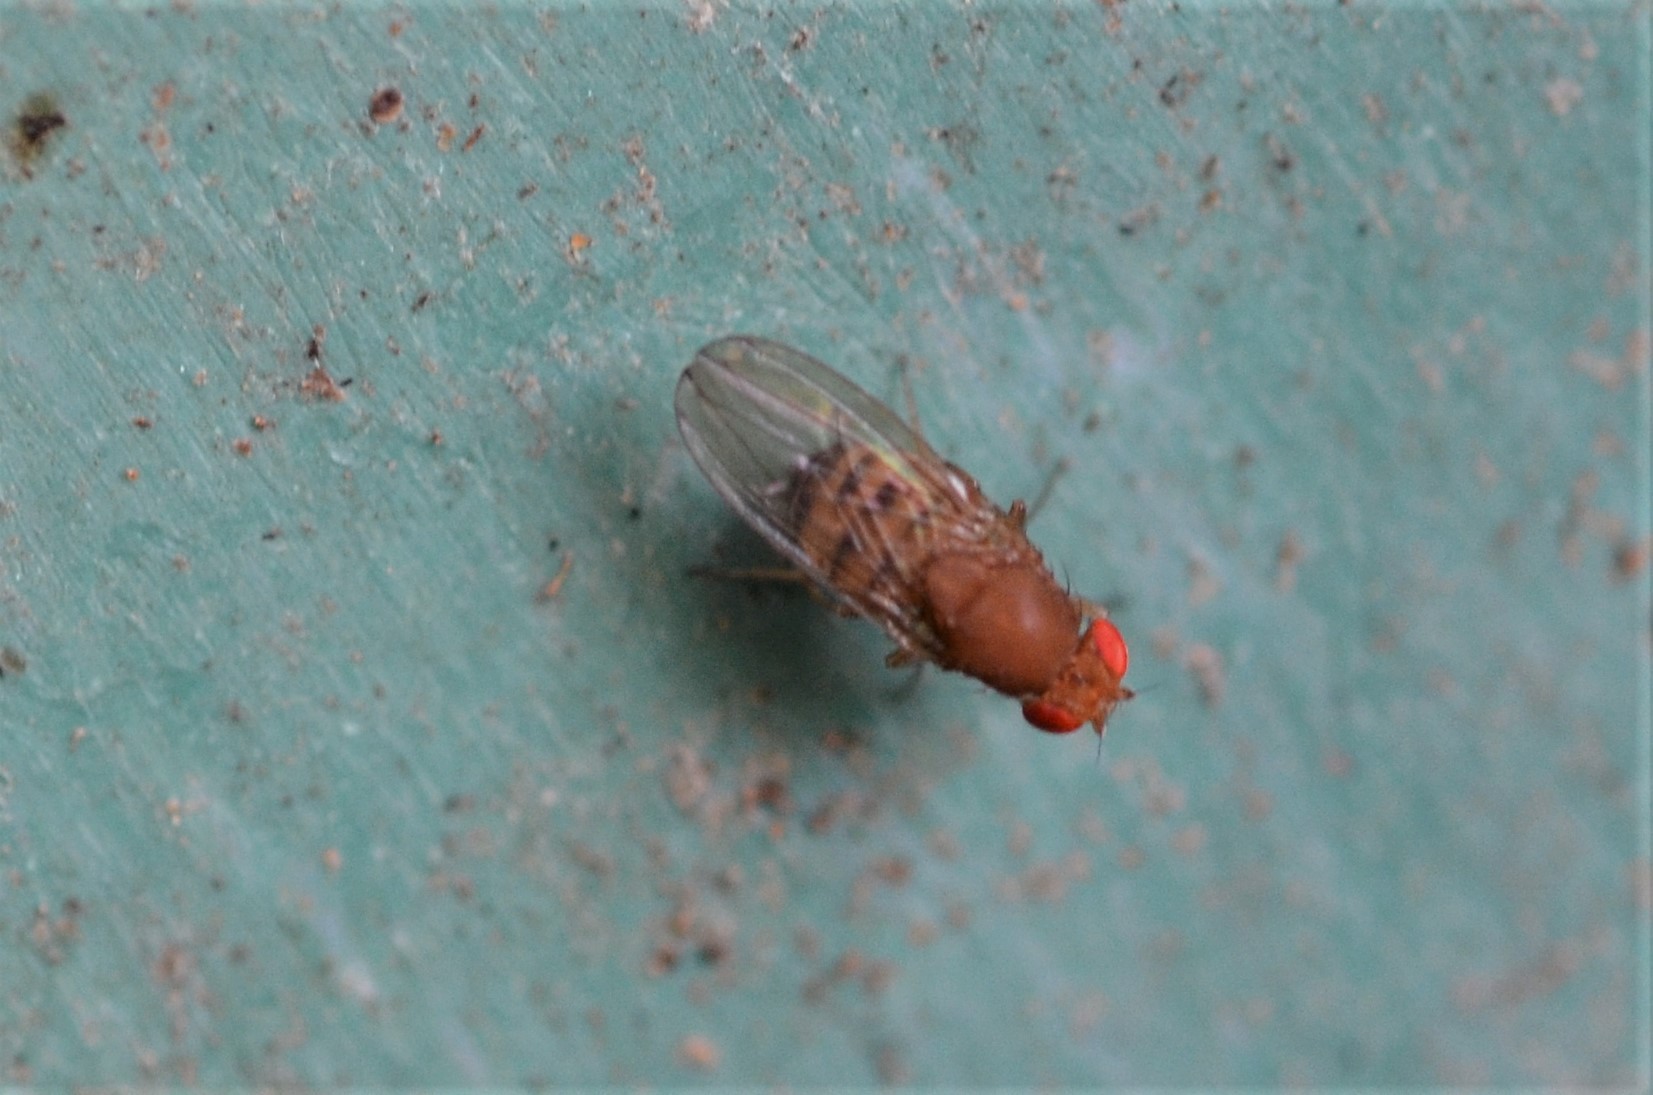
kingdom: Animalia
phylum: Arthropoda
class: Insecta
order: Diptera
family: Drosophilidae
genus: Drosophila
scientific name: Drosophila immigrans
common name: Pomace fly
